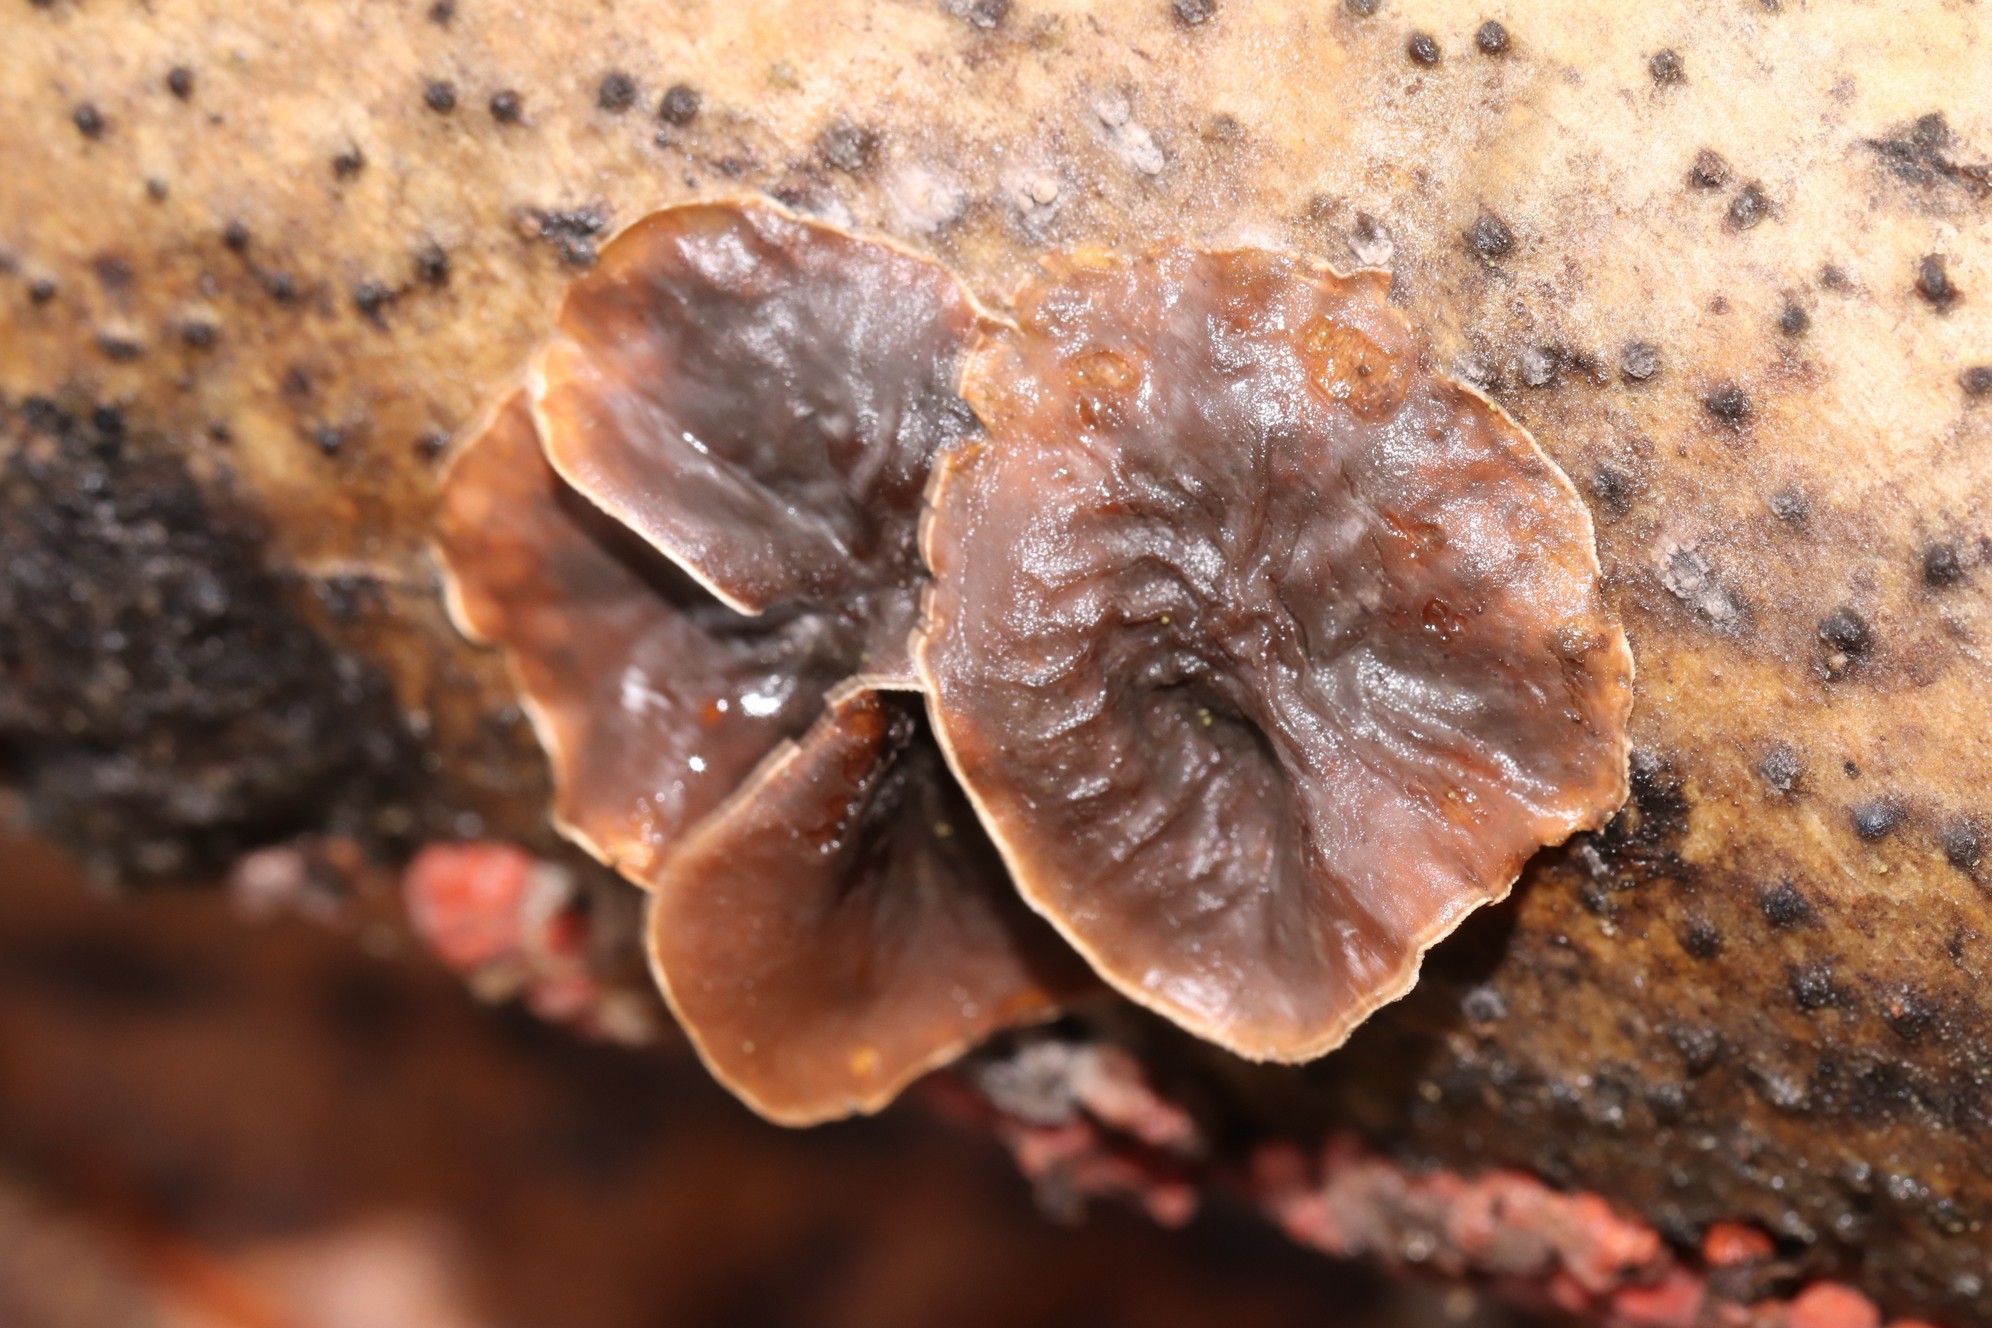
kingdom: Fungi
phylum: Basidiomycota
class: Agaricomycetes
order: Agaricales
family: Schizophyllaceae
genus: Schizophyllum
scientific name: Schizophyllum amplum
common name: Poplar bells
